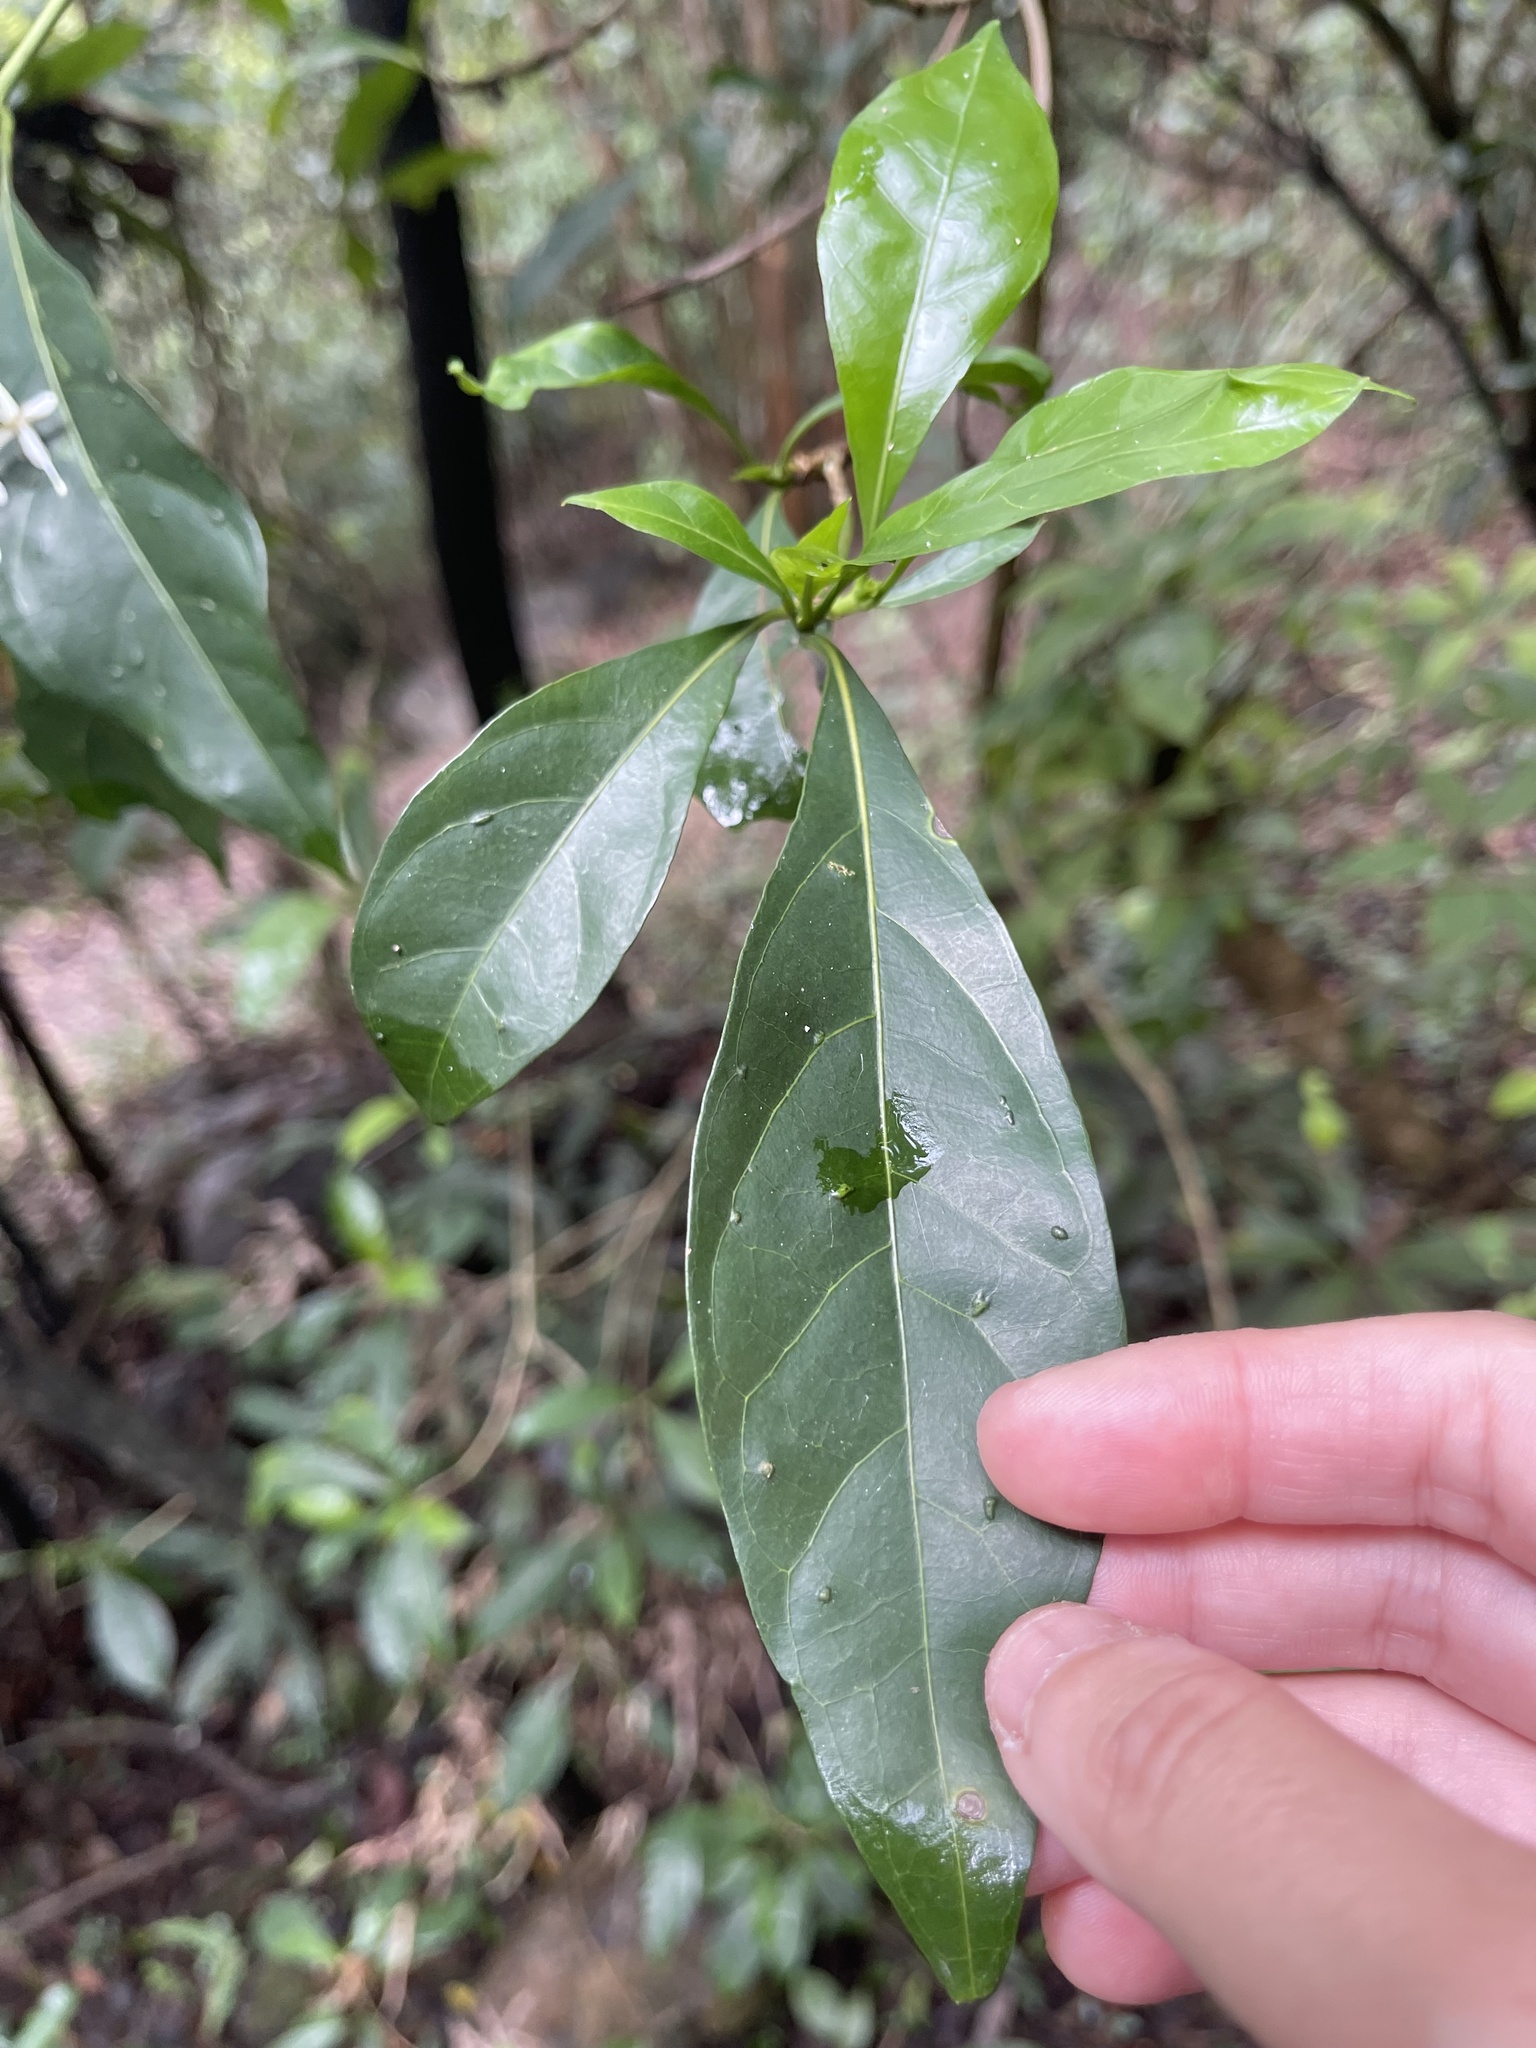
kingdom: Plantae
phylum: Tracheophyta
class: Magnoliopsida
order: Gentianales
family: Rubiaceae
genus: Pavetta
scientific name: Pavetta hongkongensis
